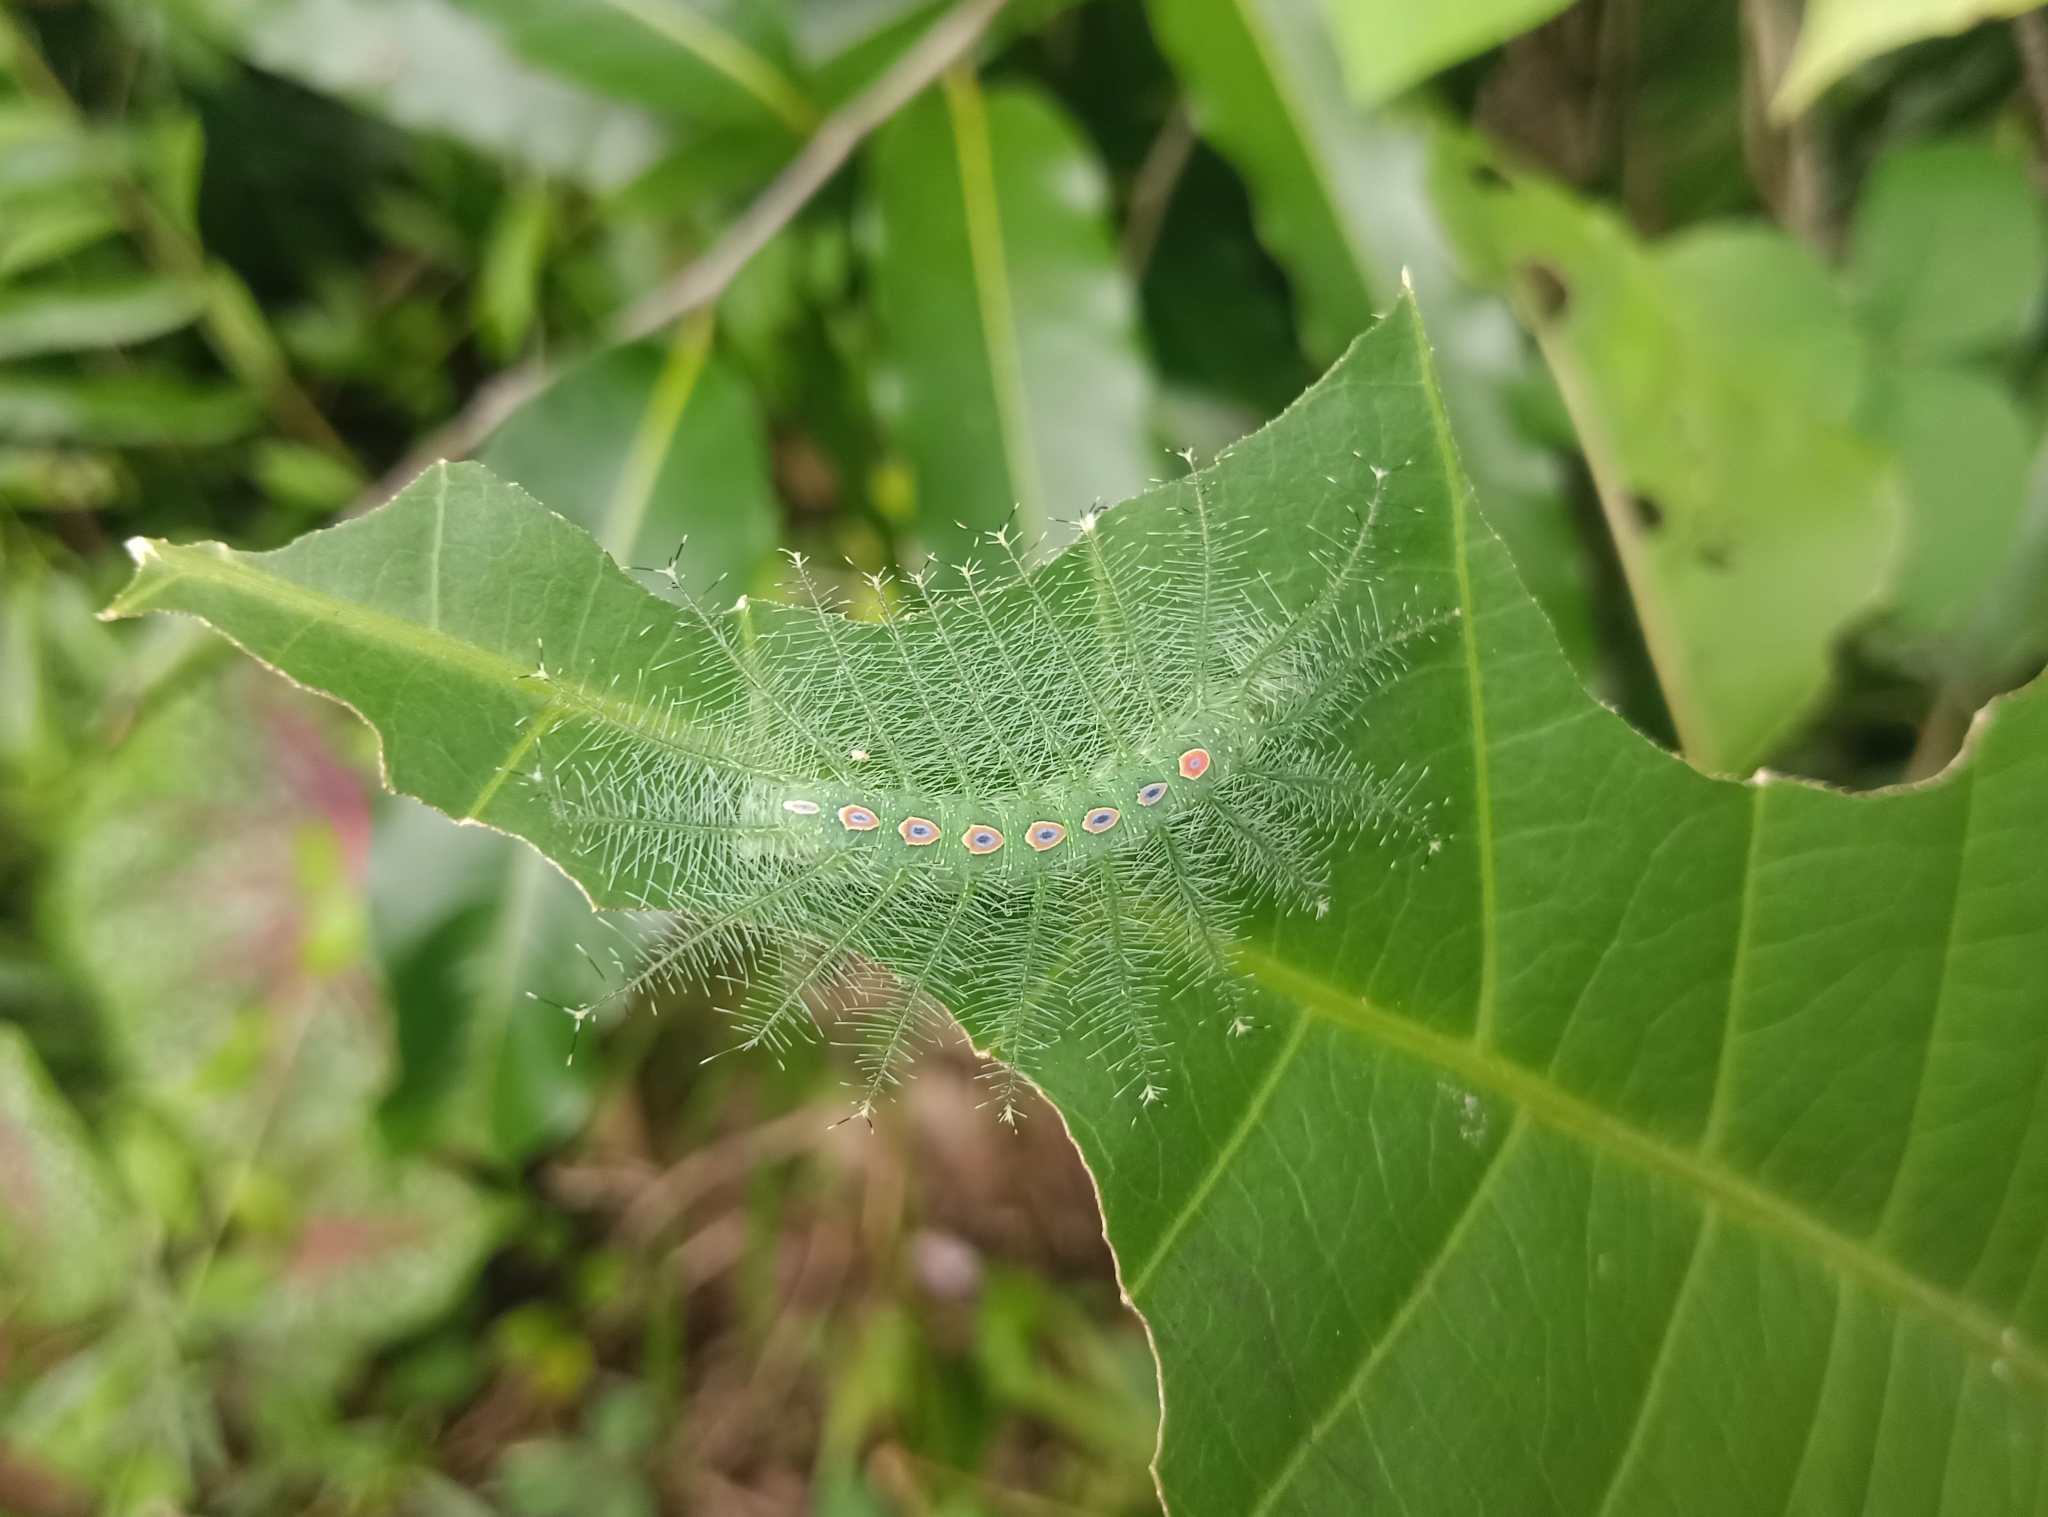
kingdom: Animalia
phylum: Arthropoda
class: Insecta
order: Lepidoptera
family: Nymphalidae
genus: Tanaecia
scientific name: Tanaecia lepidea
